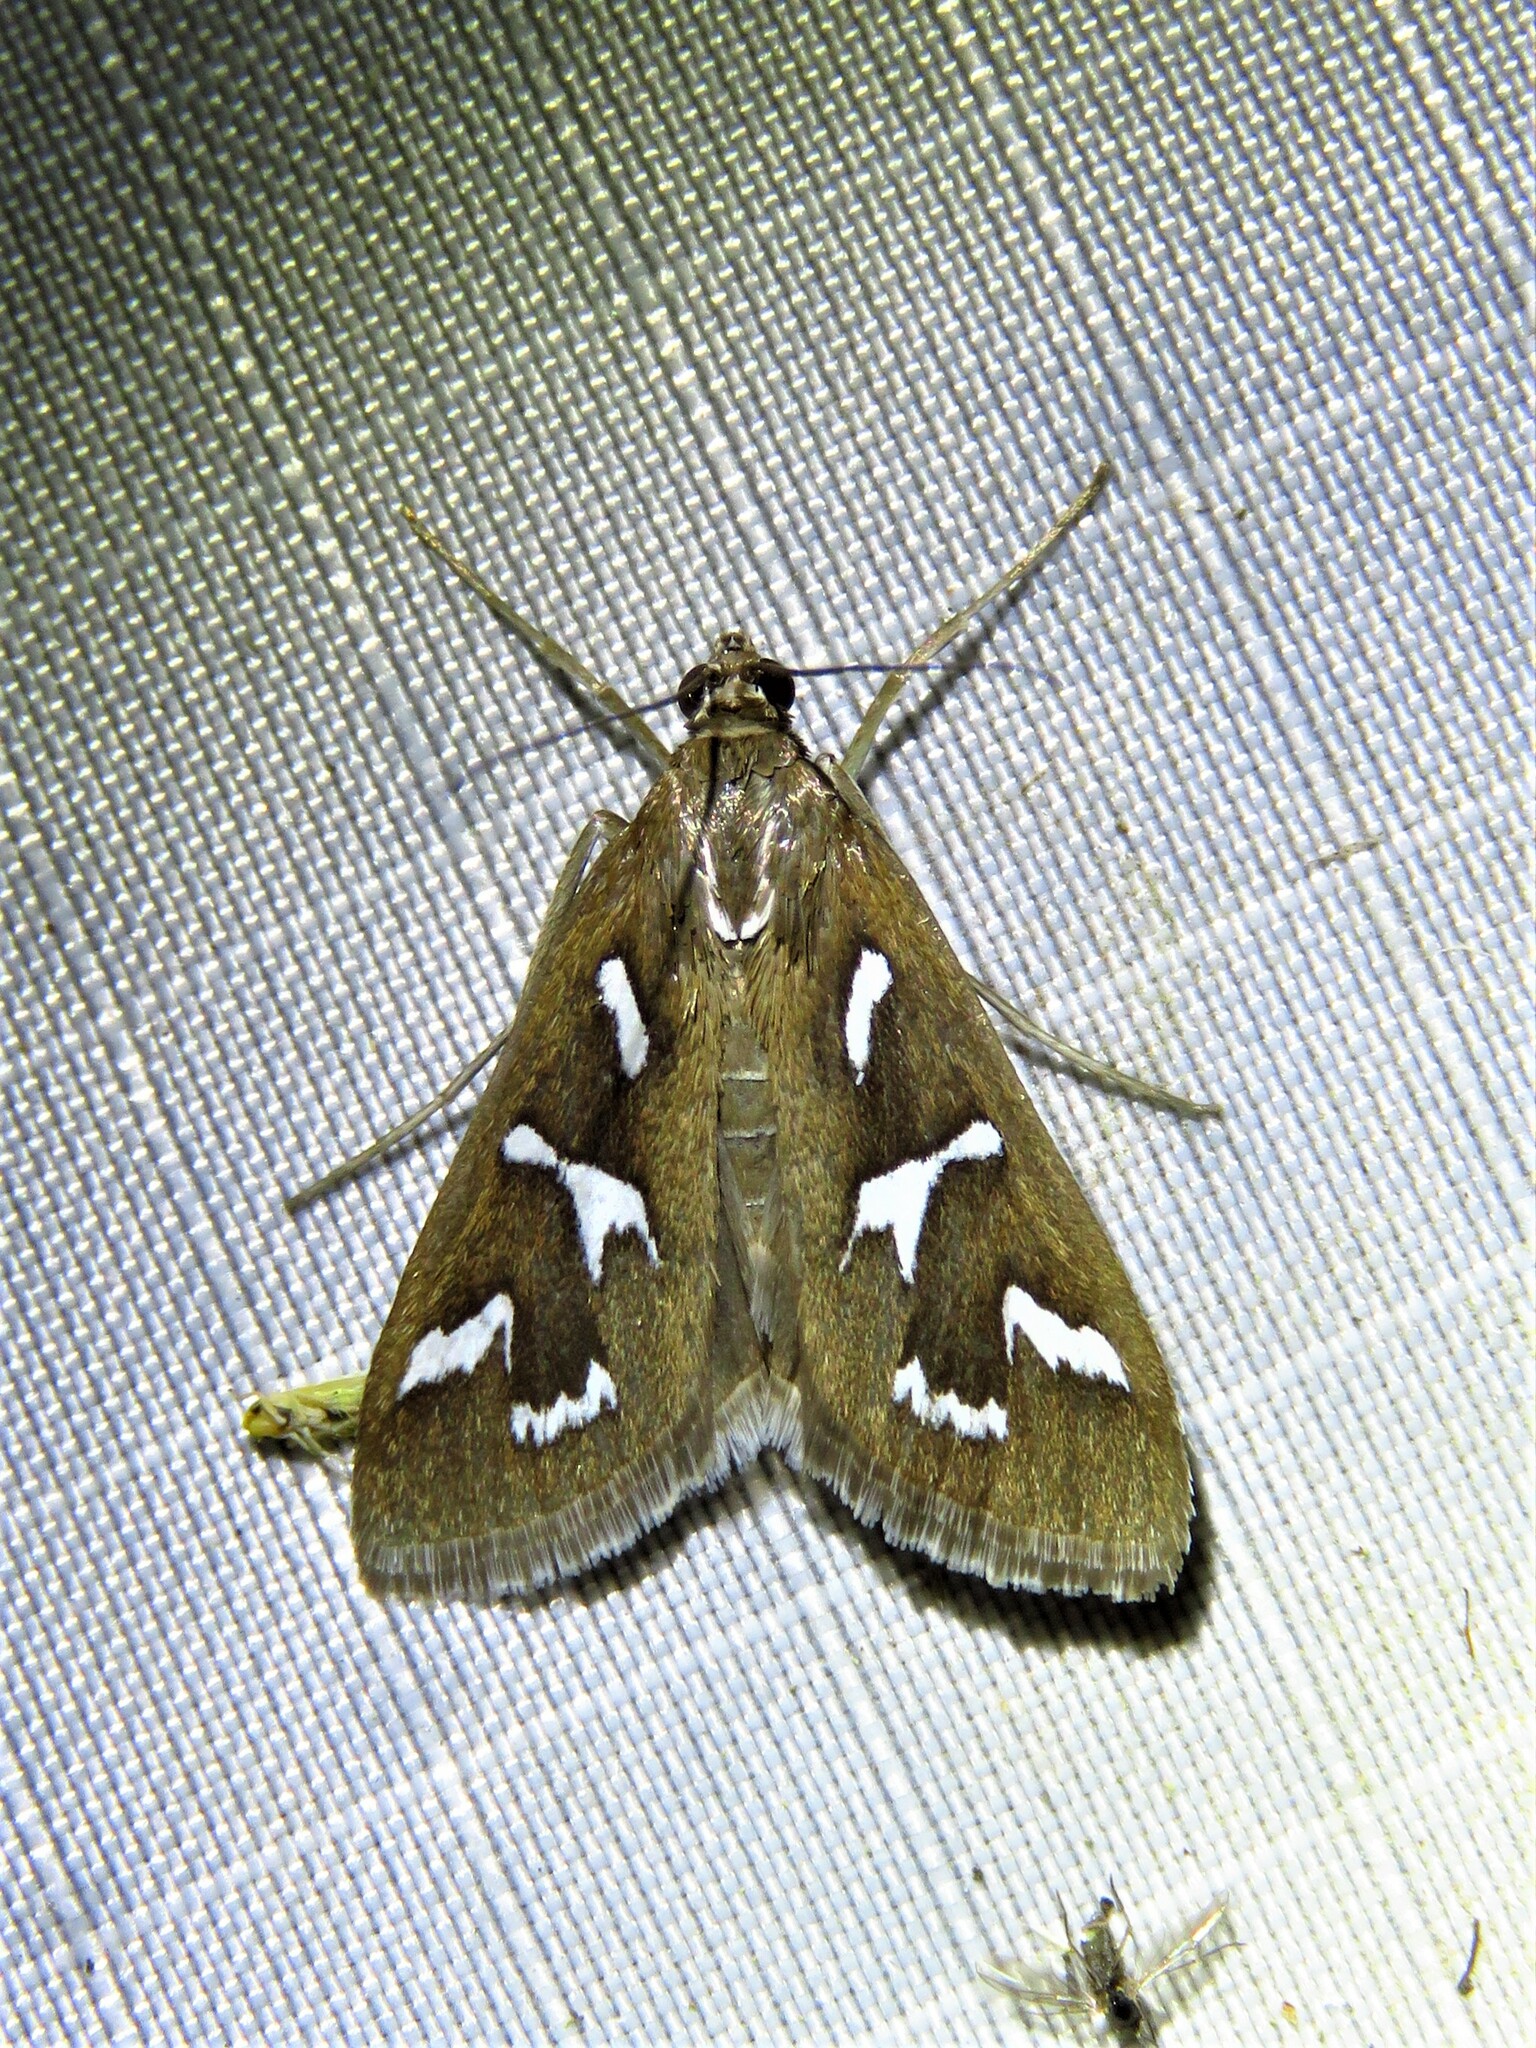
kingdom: Animalia
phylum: Arthropoda
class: Insecta
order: Lepidoptera
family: Crambidae
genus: Diastictis
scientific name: Diastictis fracturalis
